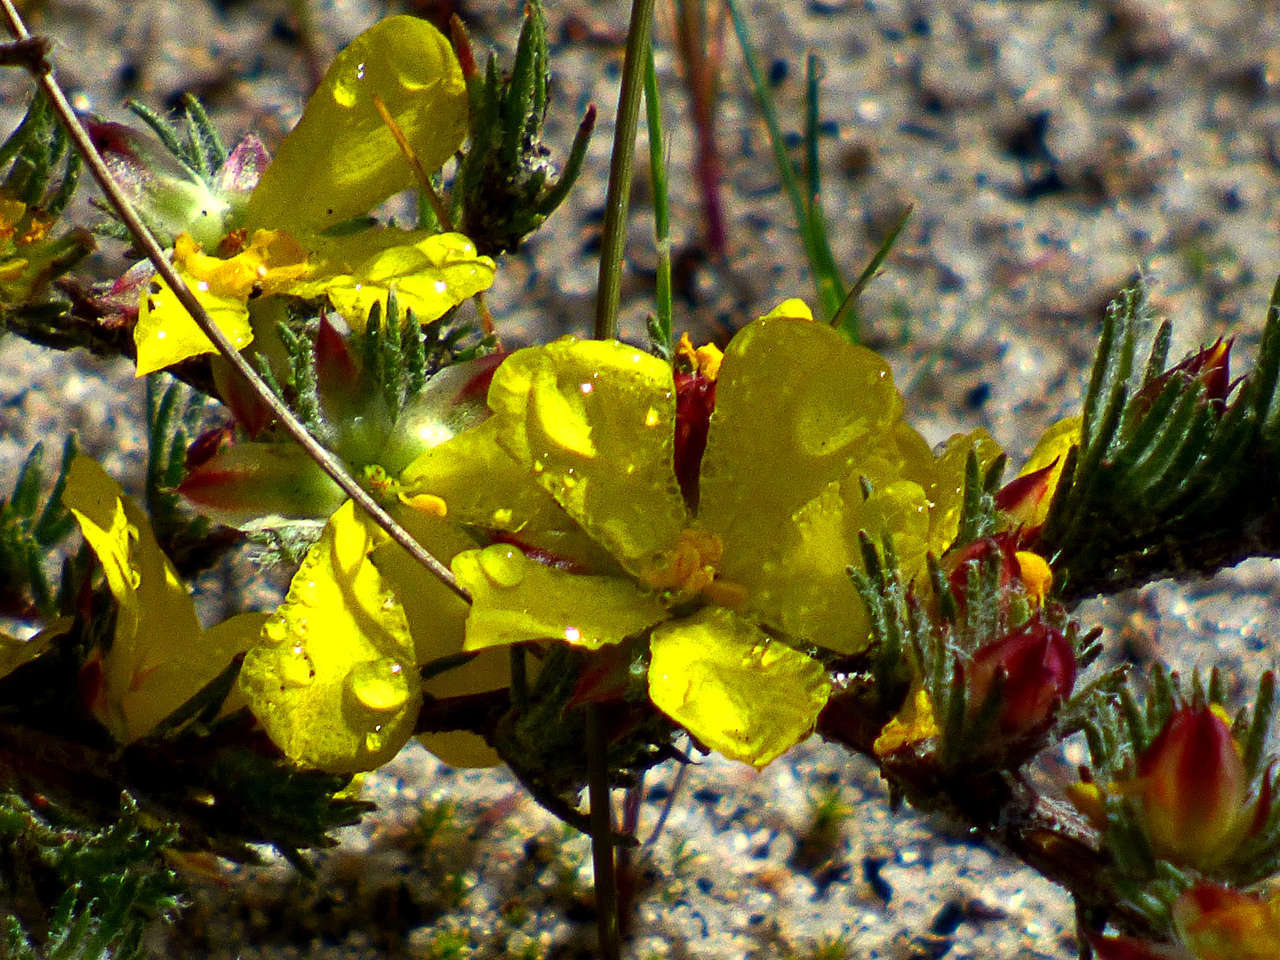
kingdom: Plantae
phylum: Tracheophyta
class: Magnoliopsida
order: Dilleniales
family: Dilleniaceae
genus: Hibbertia
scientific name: Hibbertia prostrata
